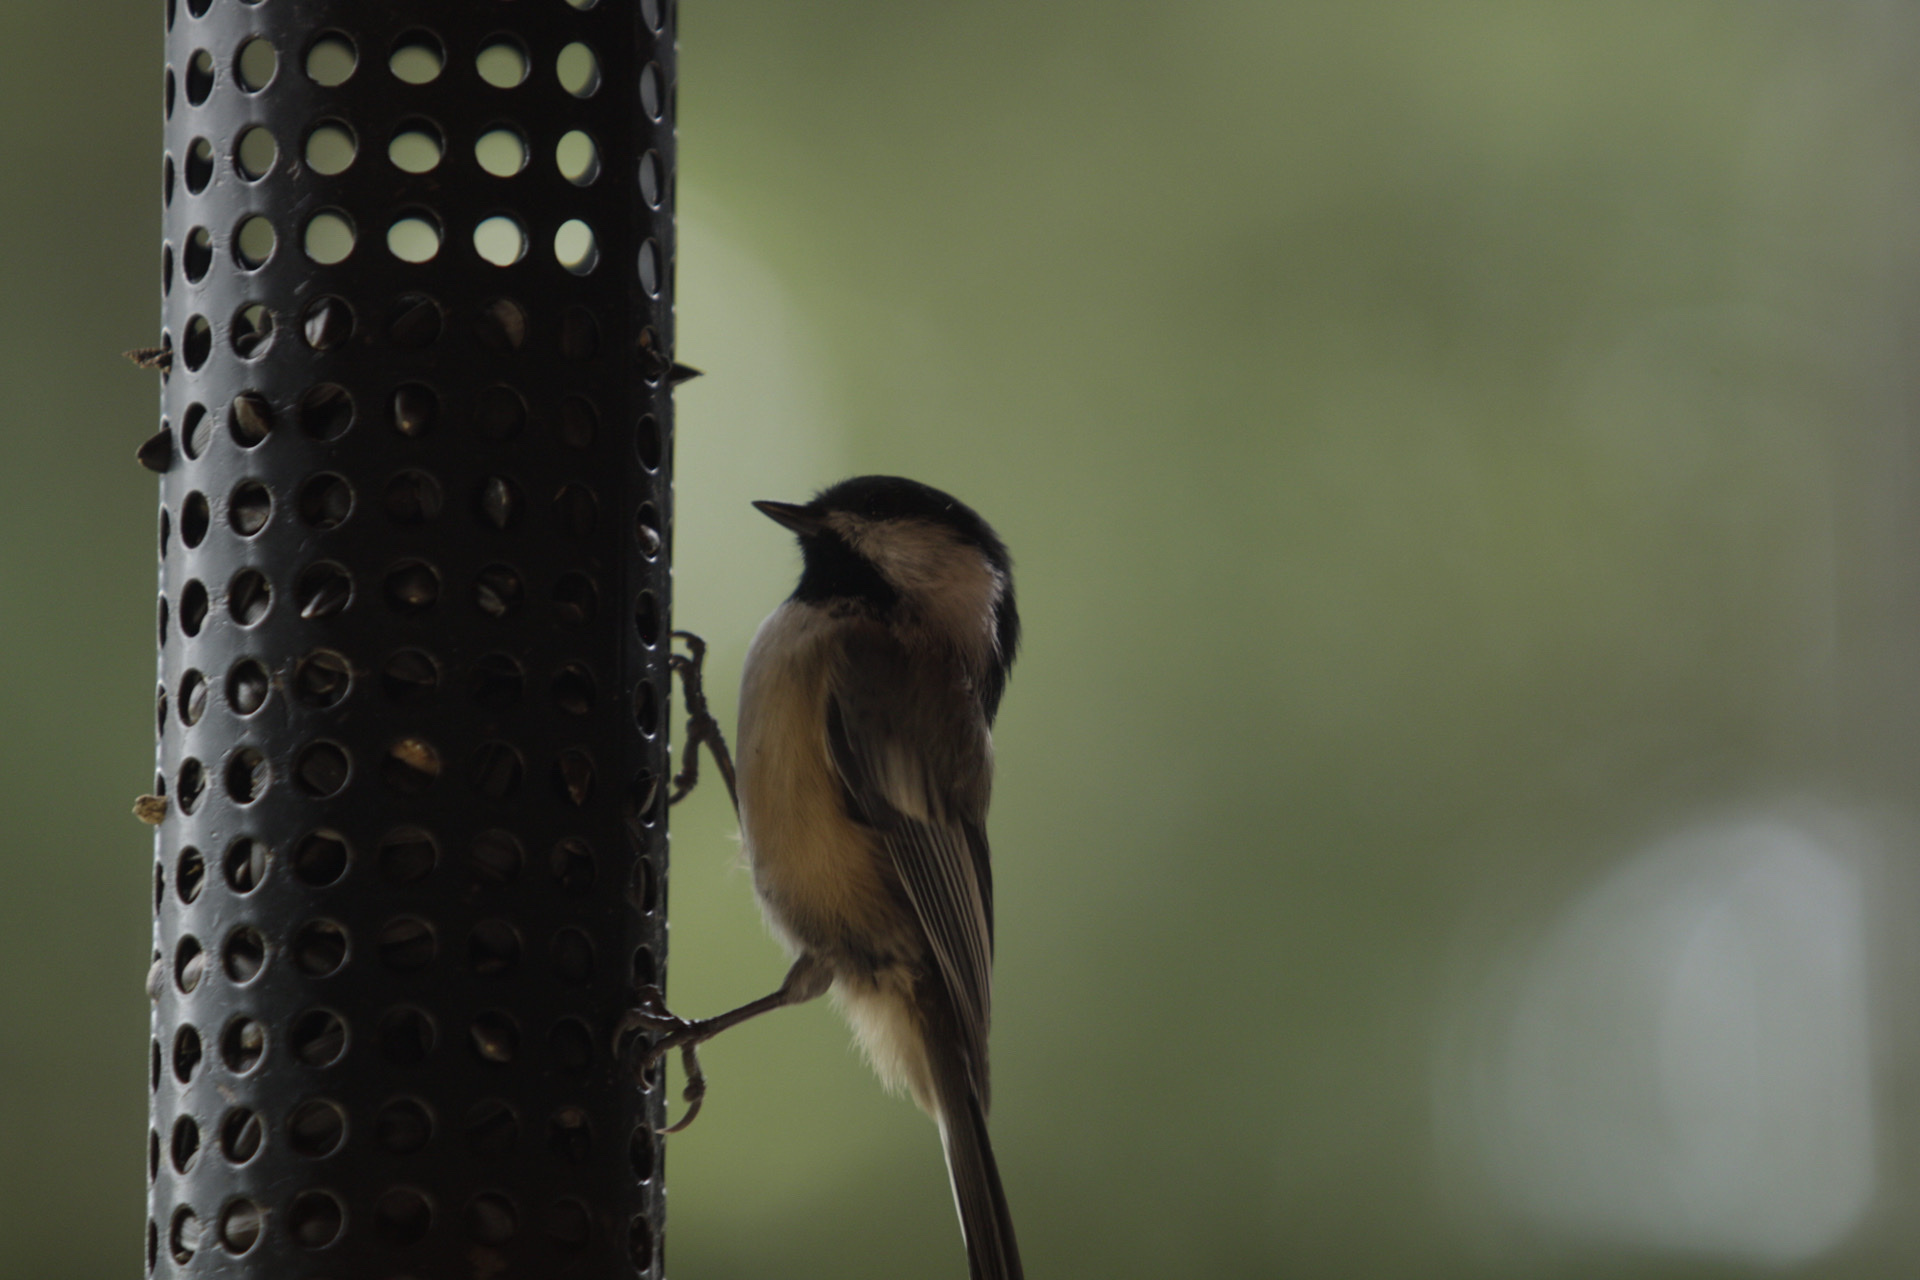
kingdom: Animalia
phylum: Chordata
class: Aves
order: Passeriformes
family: Paridae
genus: Poecile
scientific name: Poecile atricapillus
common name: Black-capped chickadee
